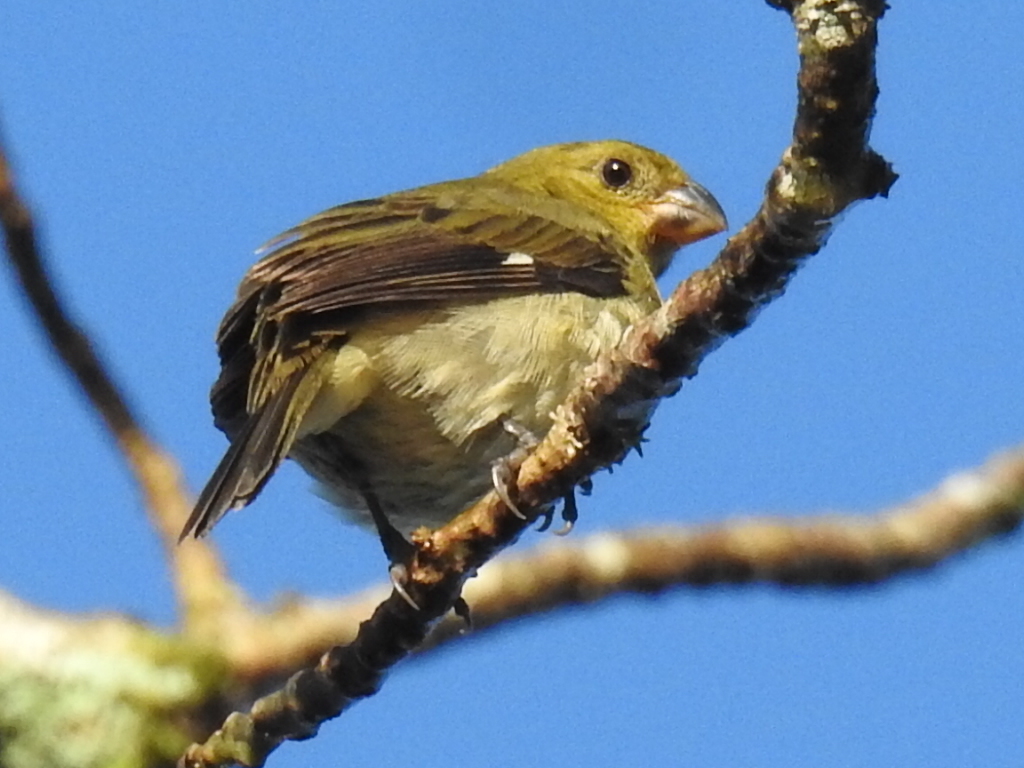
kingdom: Animalia
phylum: Chordata
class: Aves
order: Passeriformes
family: Thraupidae
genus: Sporophila
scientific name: Sporophila nigricollis
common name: Yellow-bellied seedeater
